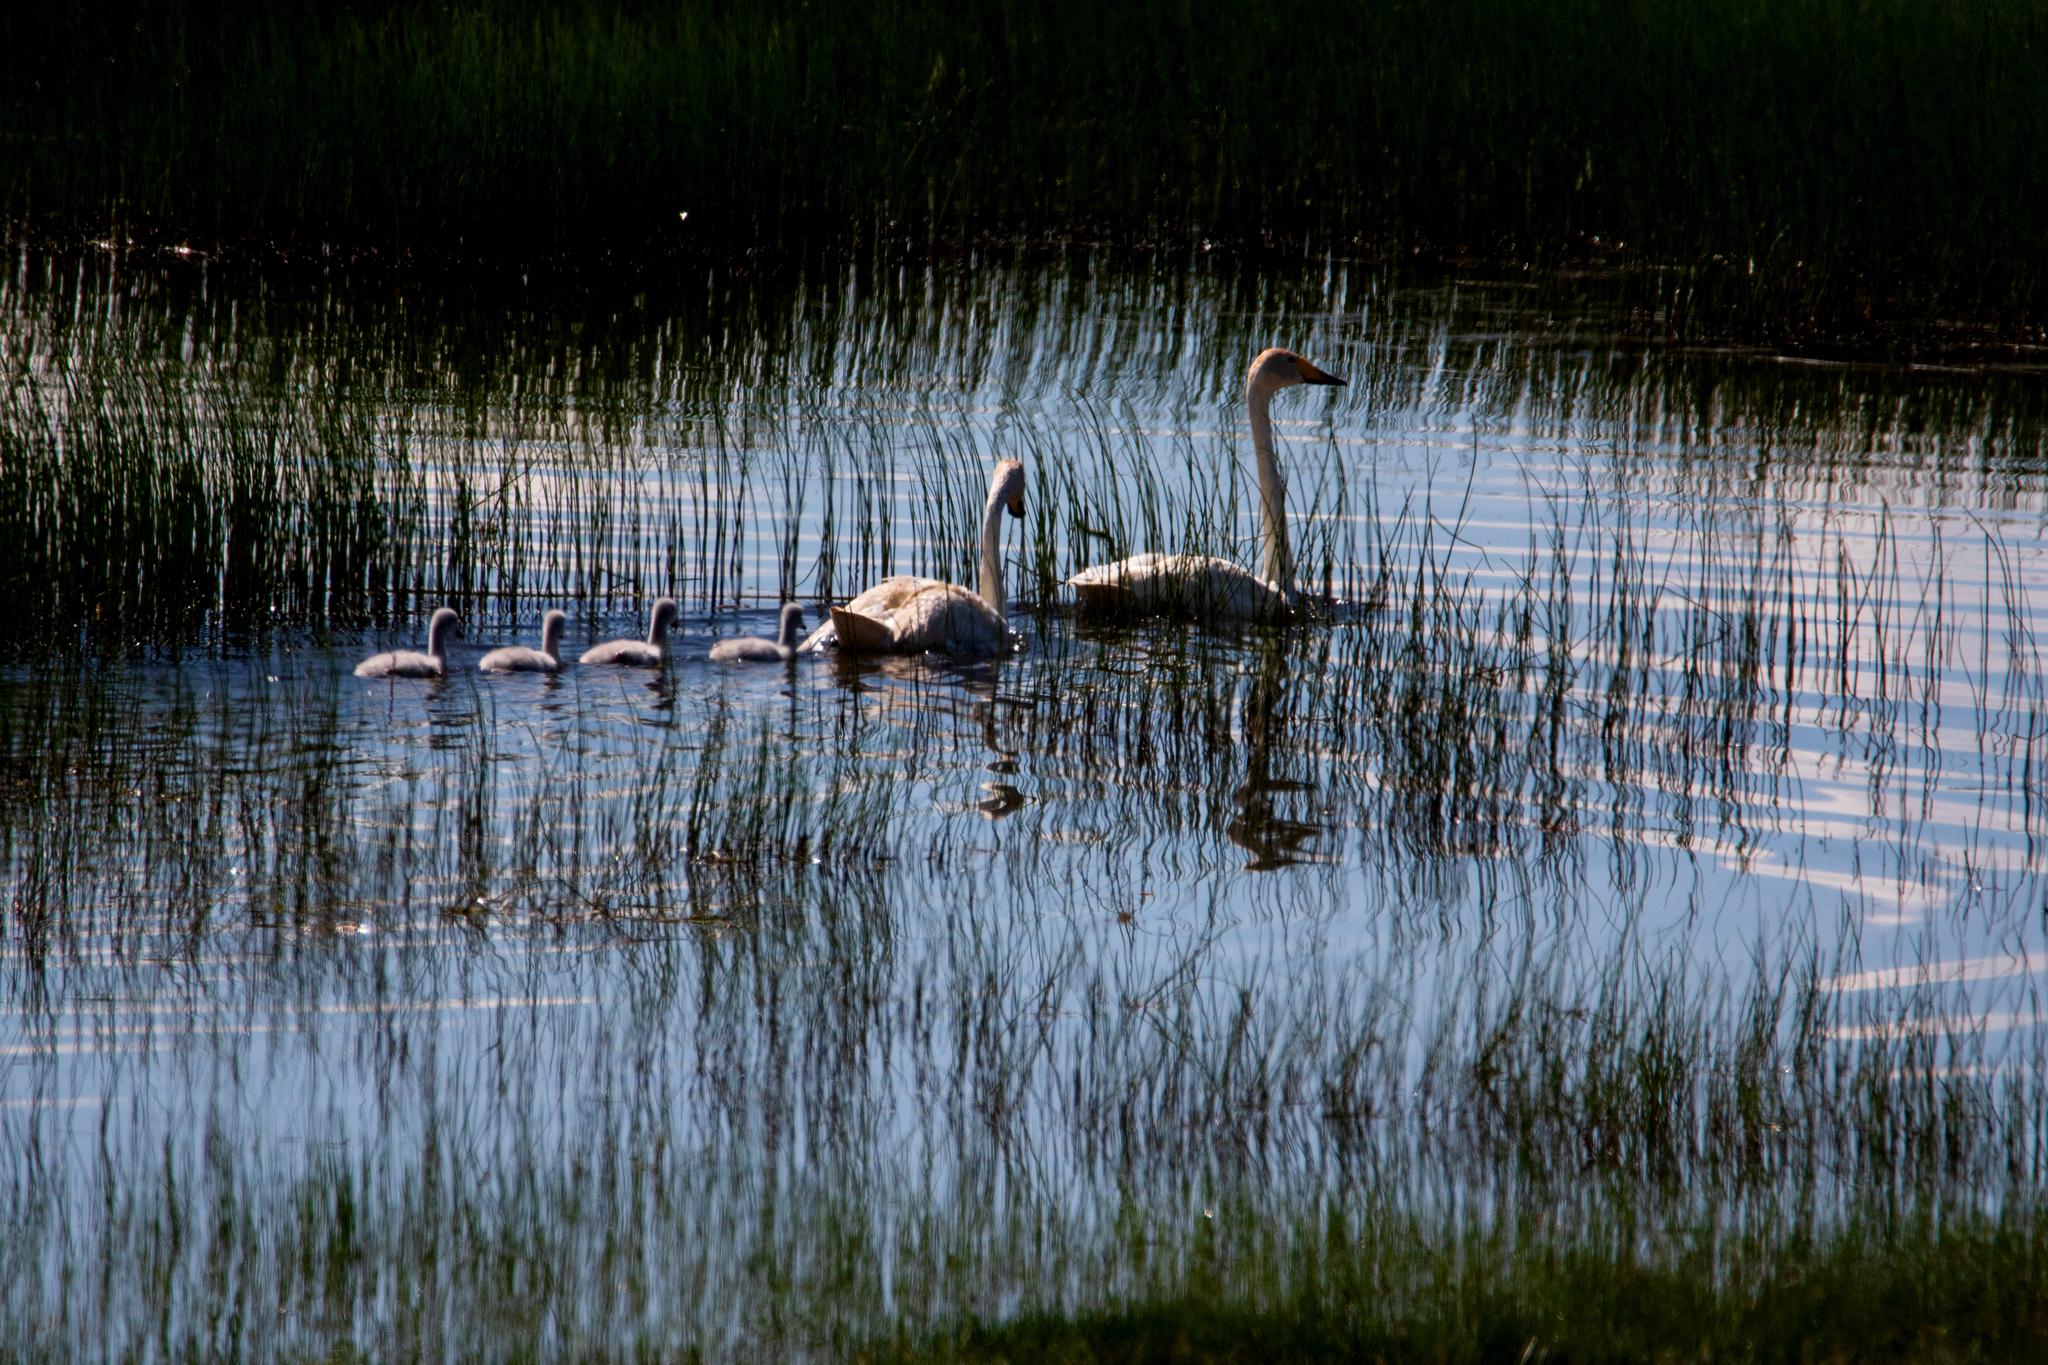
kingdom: Animalia
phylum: Chordata
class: Aves
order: Anseriformes
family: Anatidae
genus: Cygnus
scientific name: Cygnus cygnus
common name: Whooper swan
